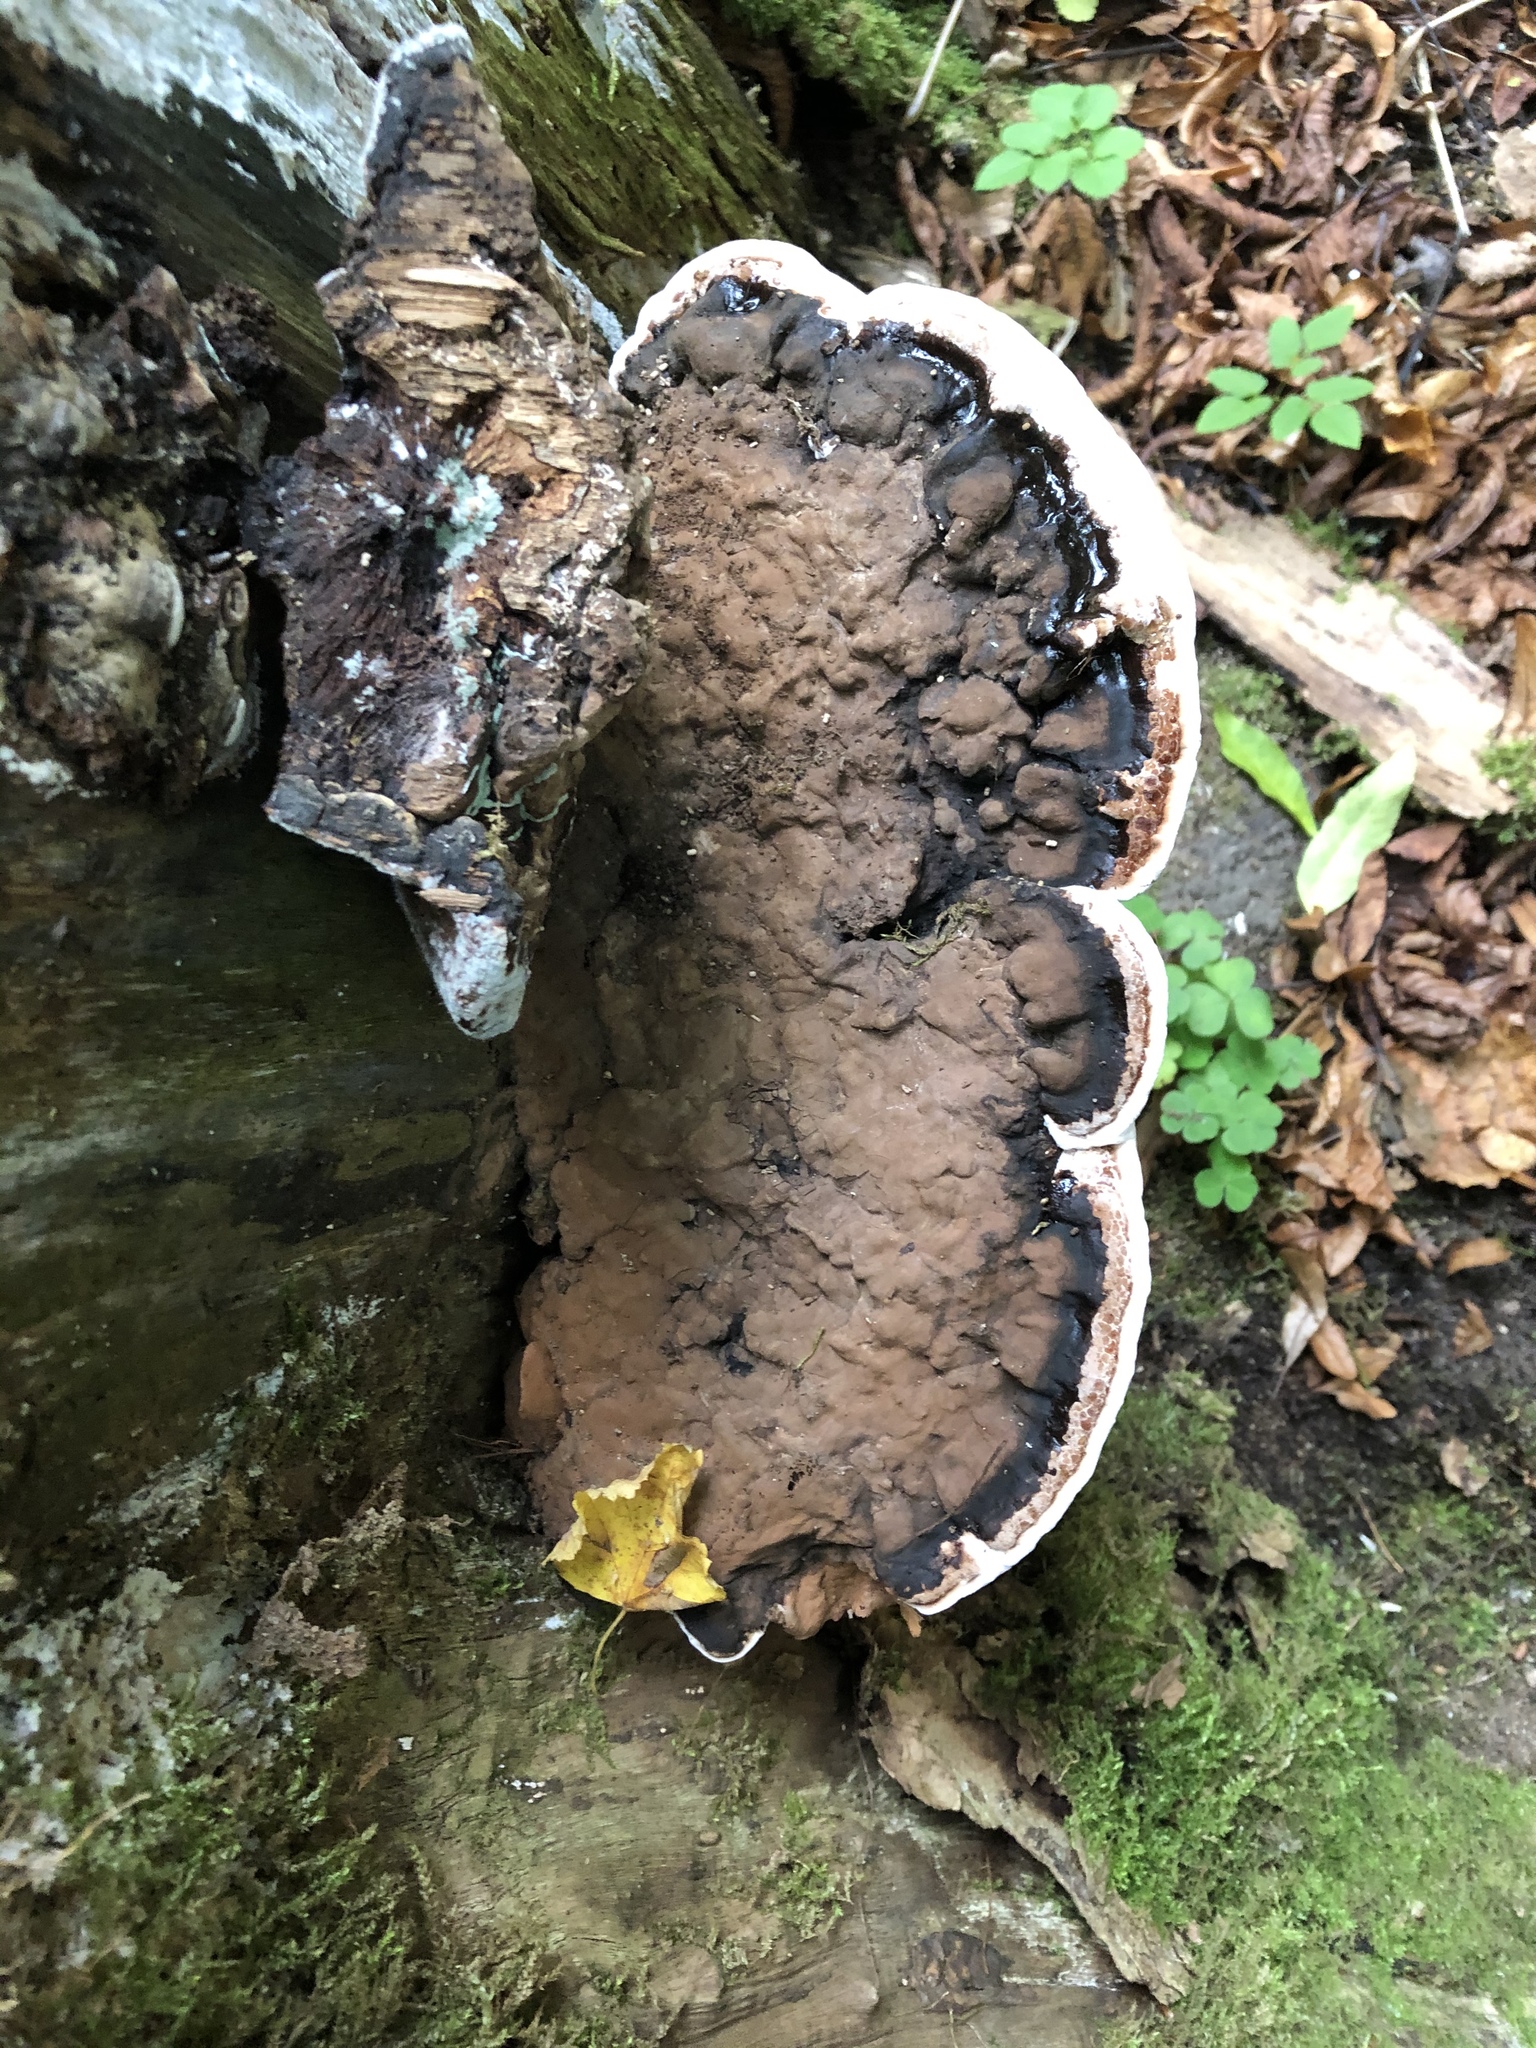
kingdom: Fungi
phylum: Basidiomycota
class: Agaricomycetes
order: Polyporales
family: Polyporaceae
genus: Ganoderma
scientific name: Ganoderma applanatum
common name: Artist's bracket
